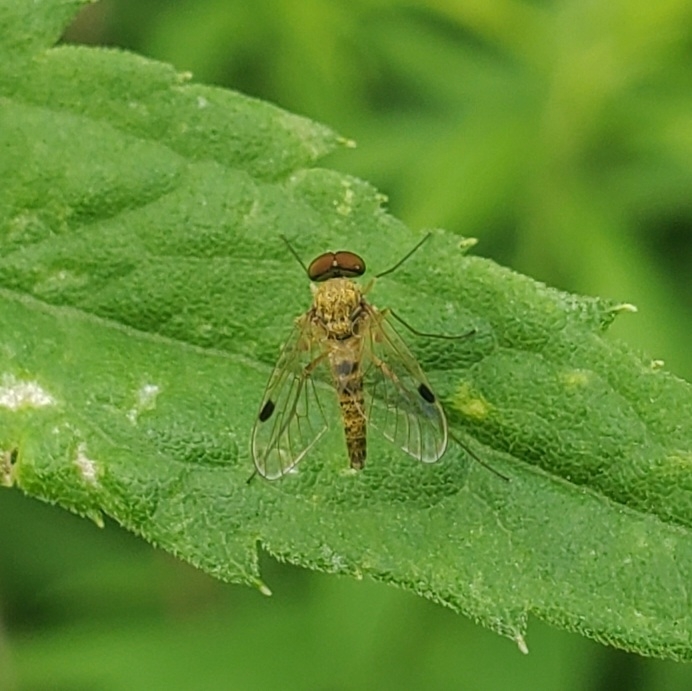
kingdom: Animalia
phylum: Arthropoda
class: Insecta
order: Diptera
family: Rhagionidae
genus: Chrysopilus
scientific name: Chrysopilus modestus
